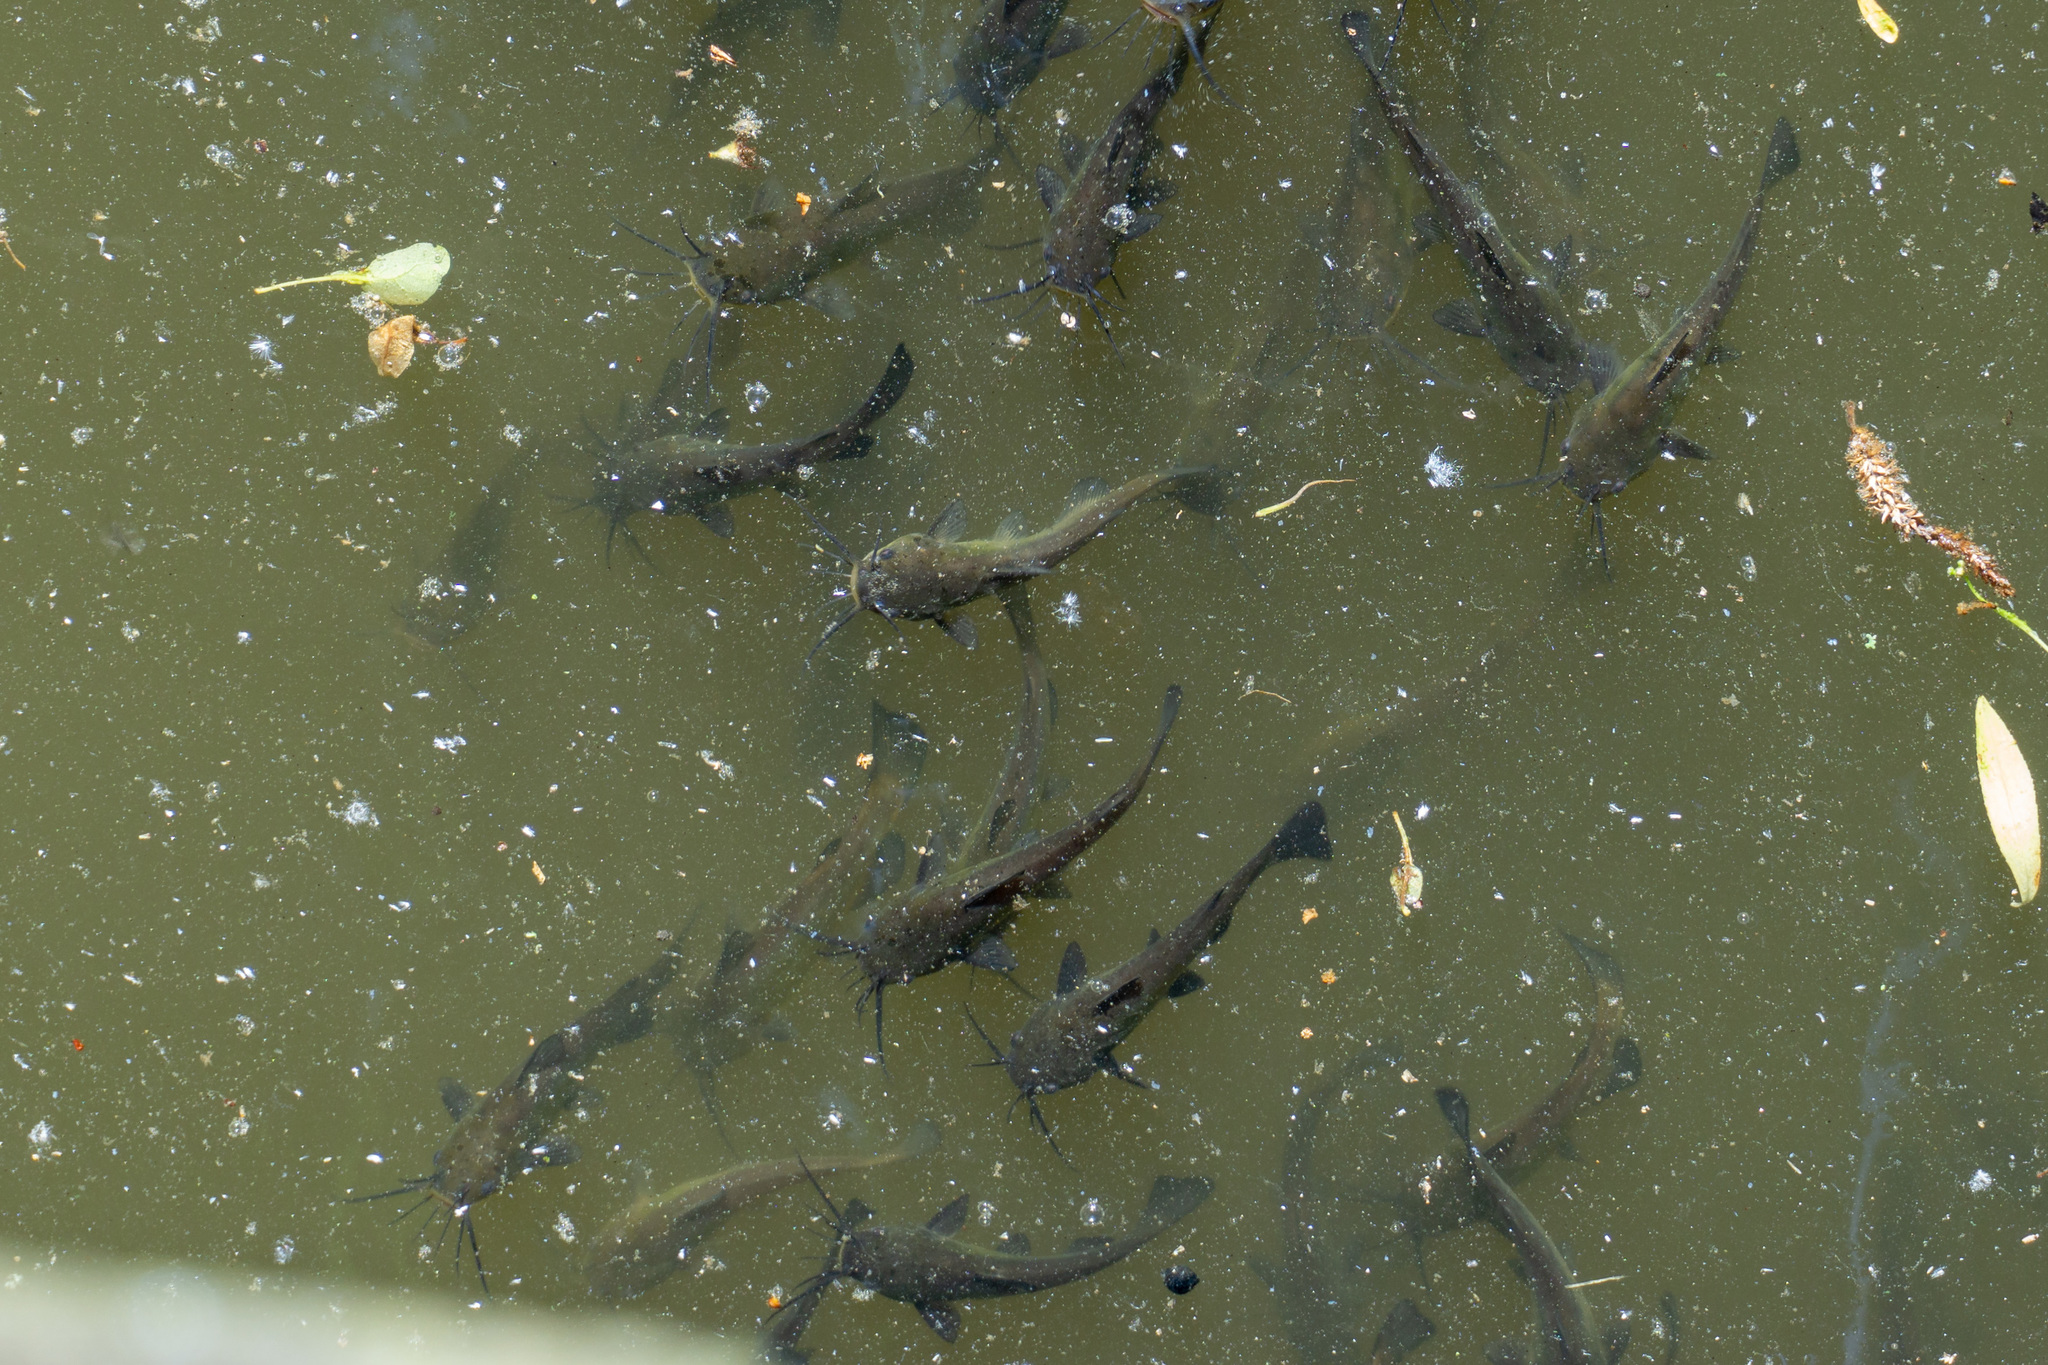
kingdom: Animalia
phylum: Chordata
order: Siluriformes
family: Ictaluridae
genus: Ameiurus
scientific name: Ameiurus nebulosus
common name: Brown bullhead
